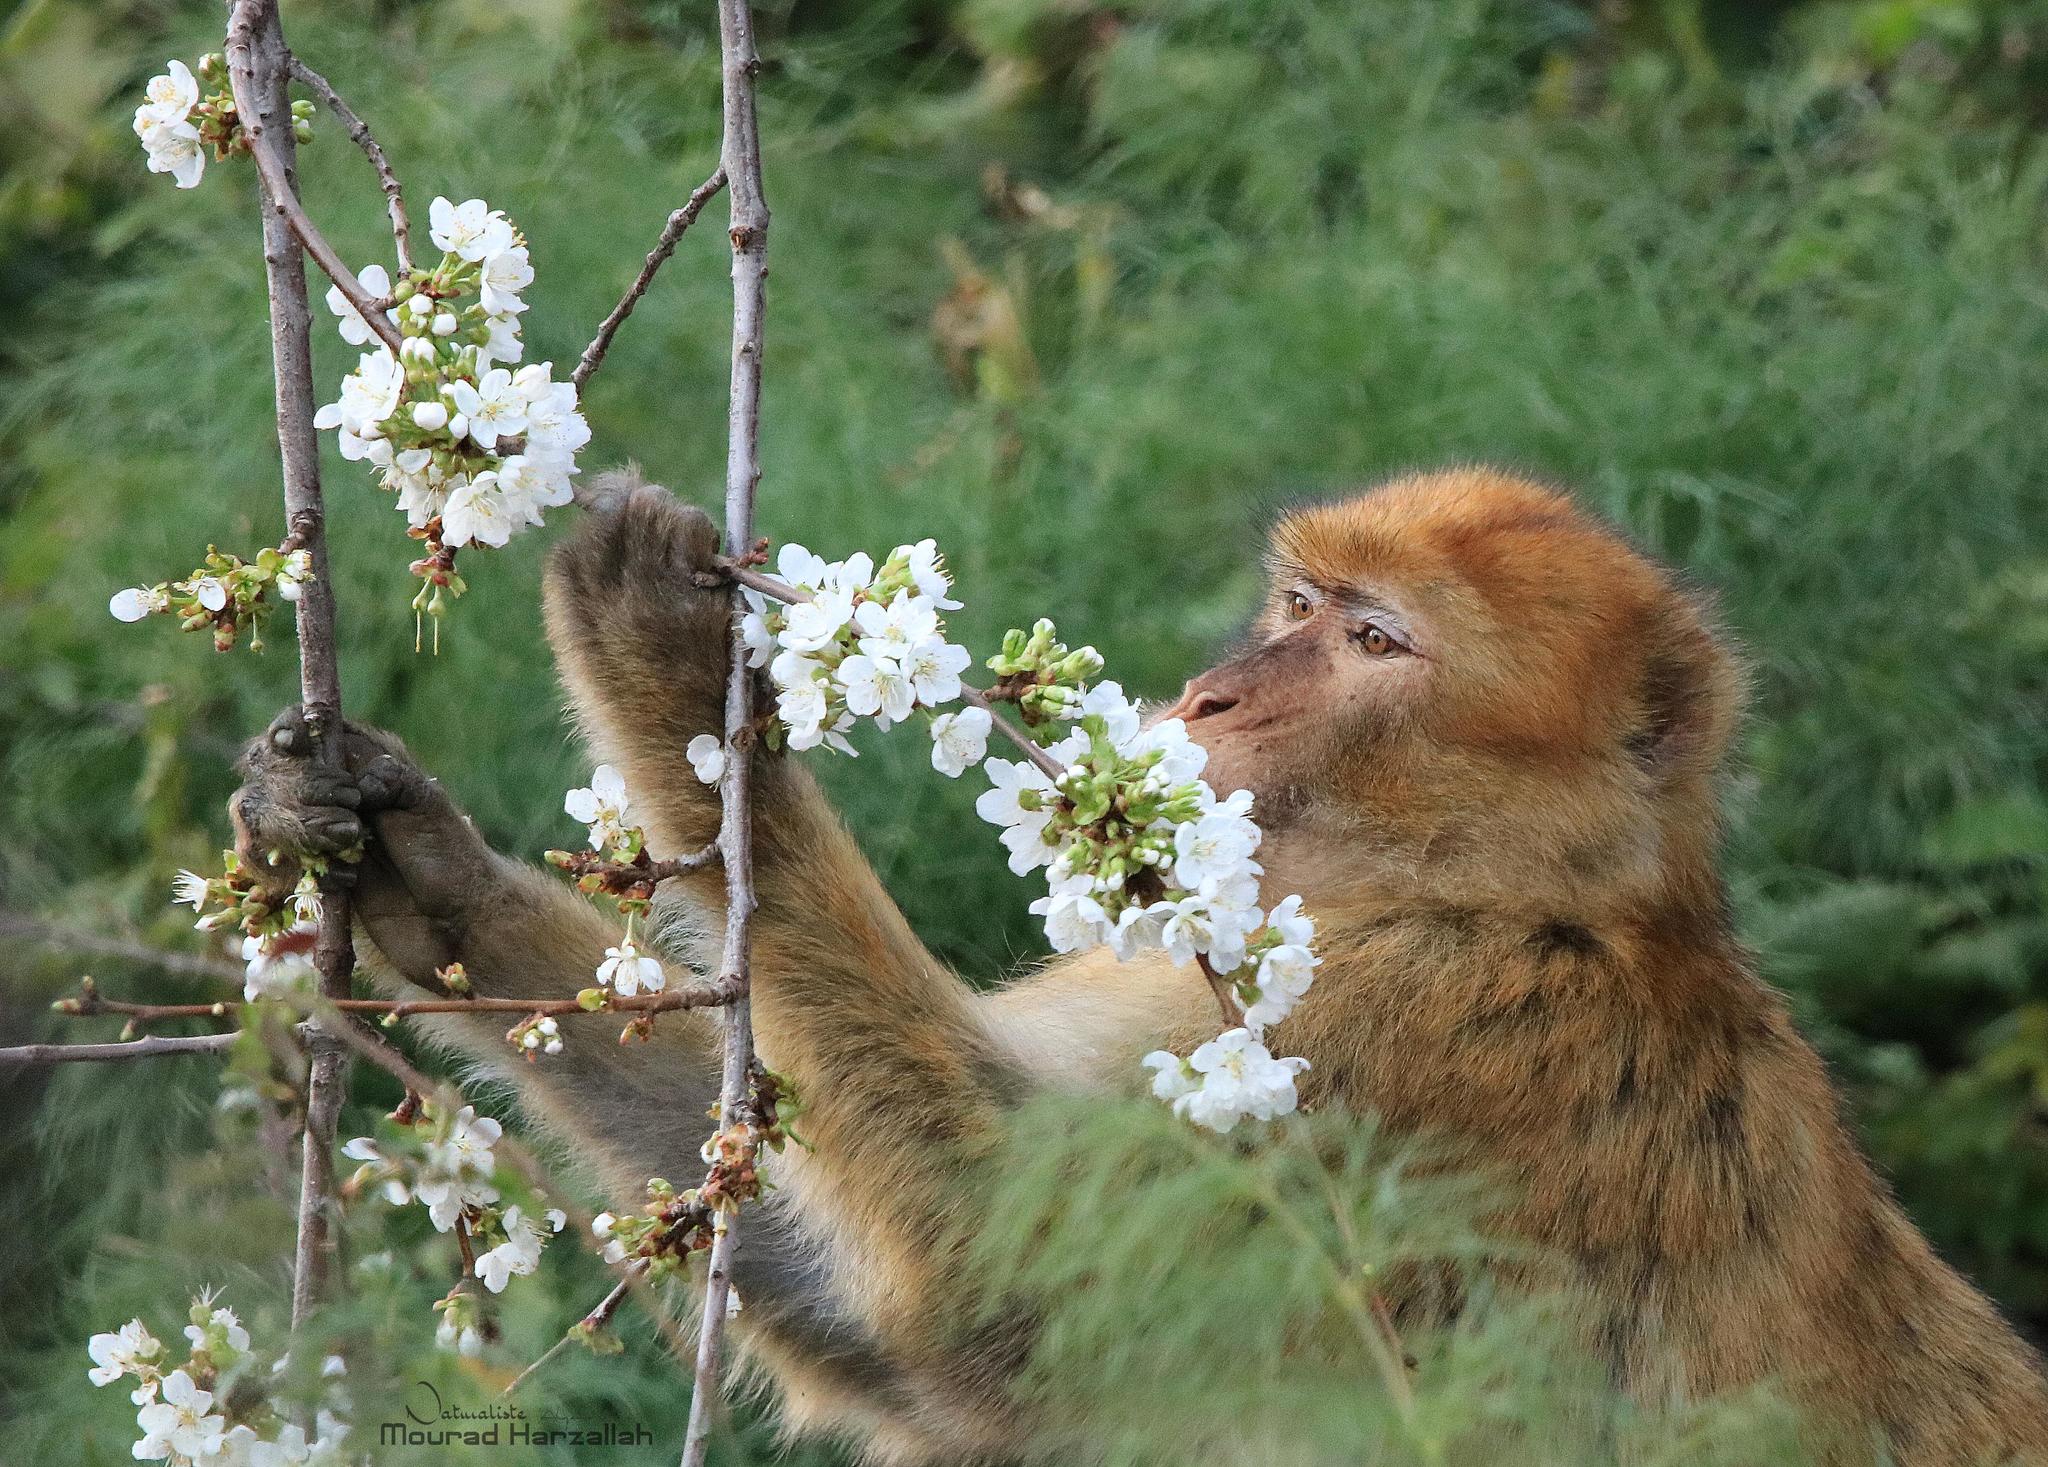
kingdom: Animalia
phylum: Chordata
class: Mammalia
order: Primates
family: Cercopithecidae
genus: Macaca
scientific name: Macaca sylvanus
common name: Barbary macaque
